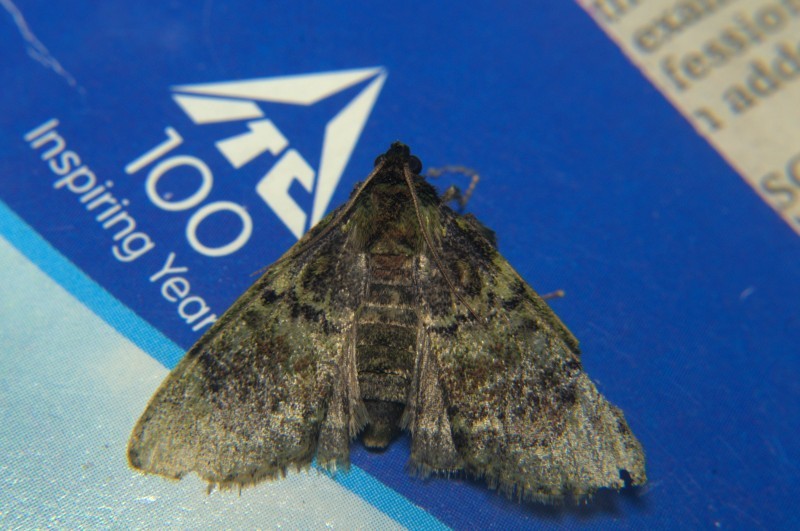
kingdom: Animalia
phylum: Arthropoda
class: Insecta
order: Lepidoptera
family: Pyralidae
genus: Locastra
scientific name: Locastra viridis
